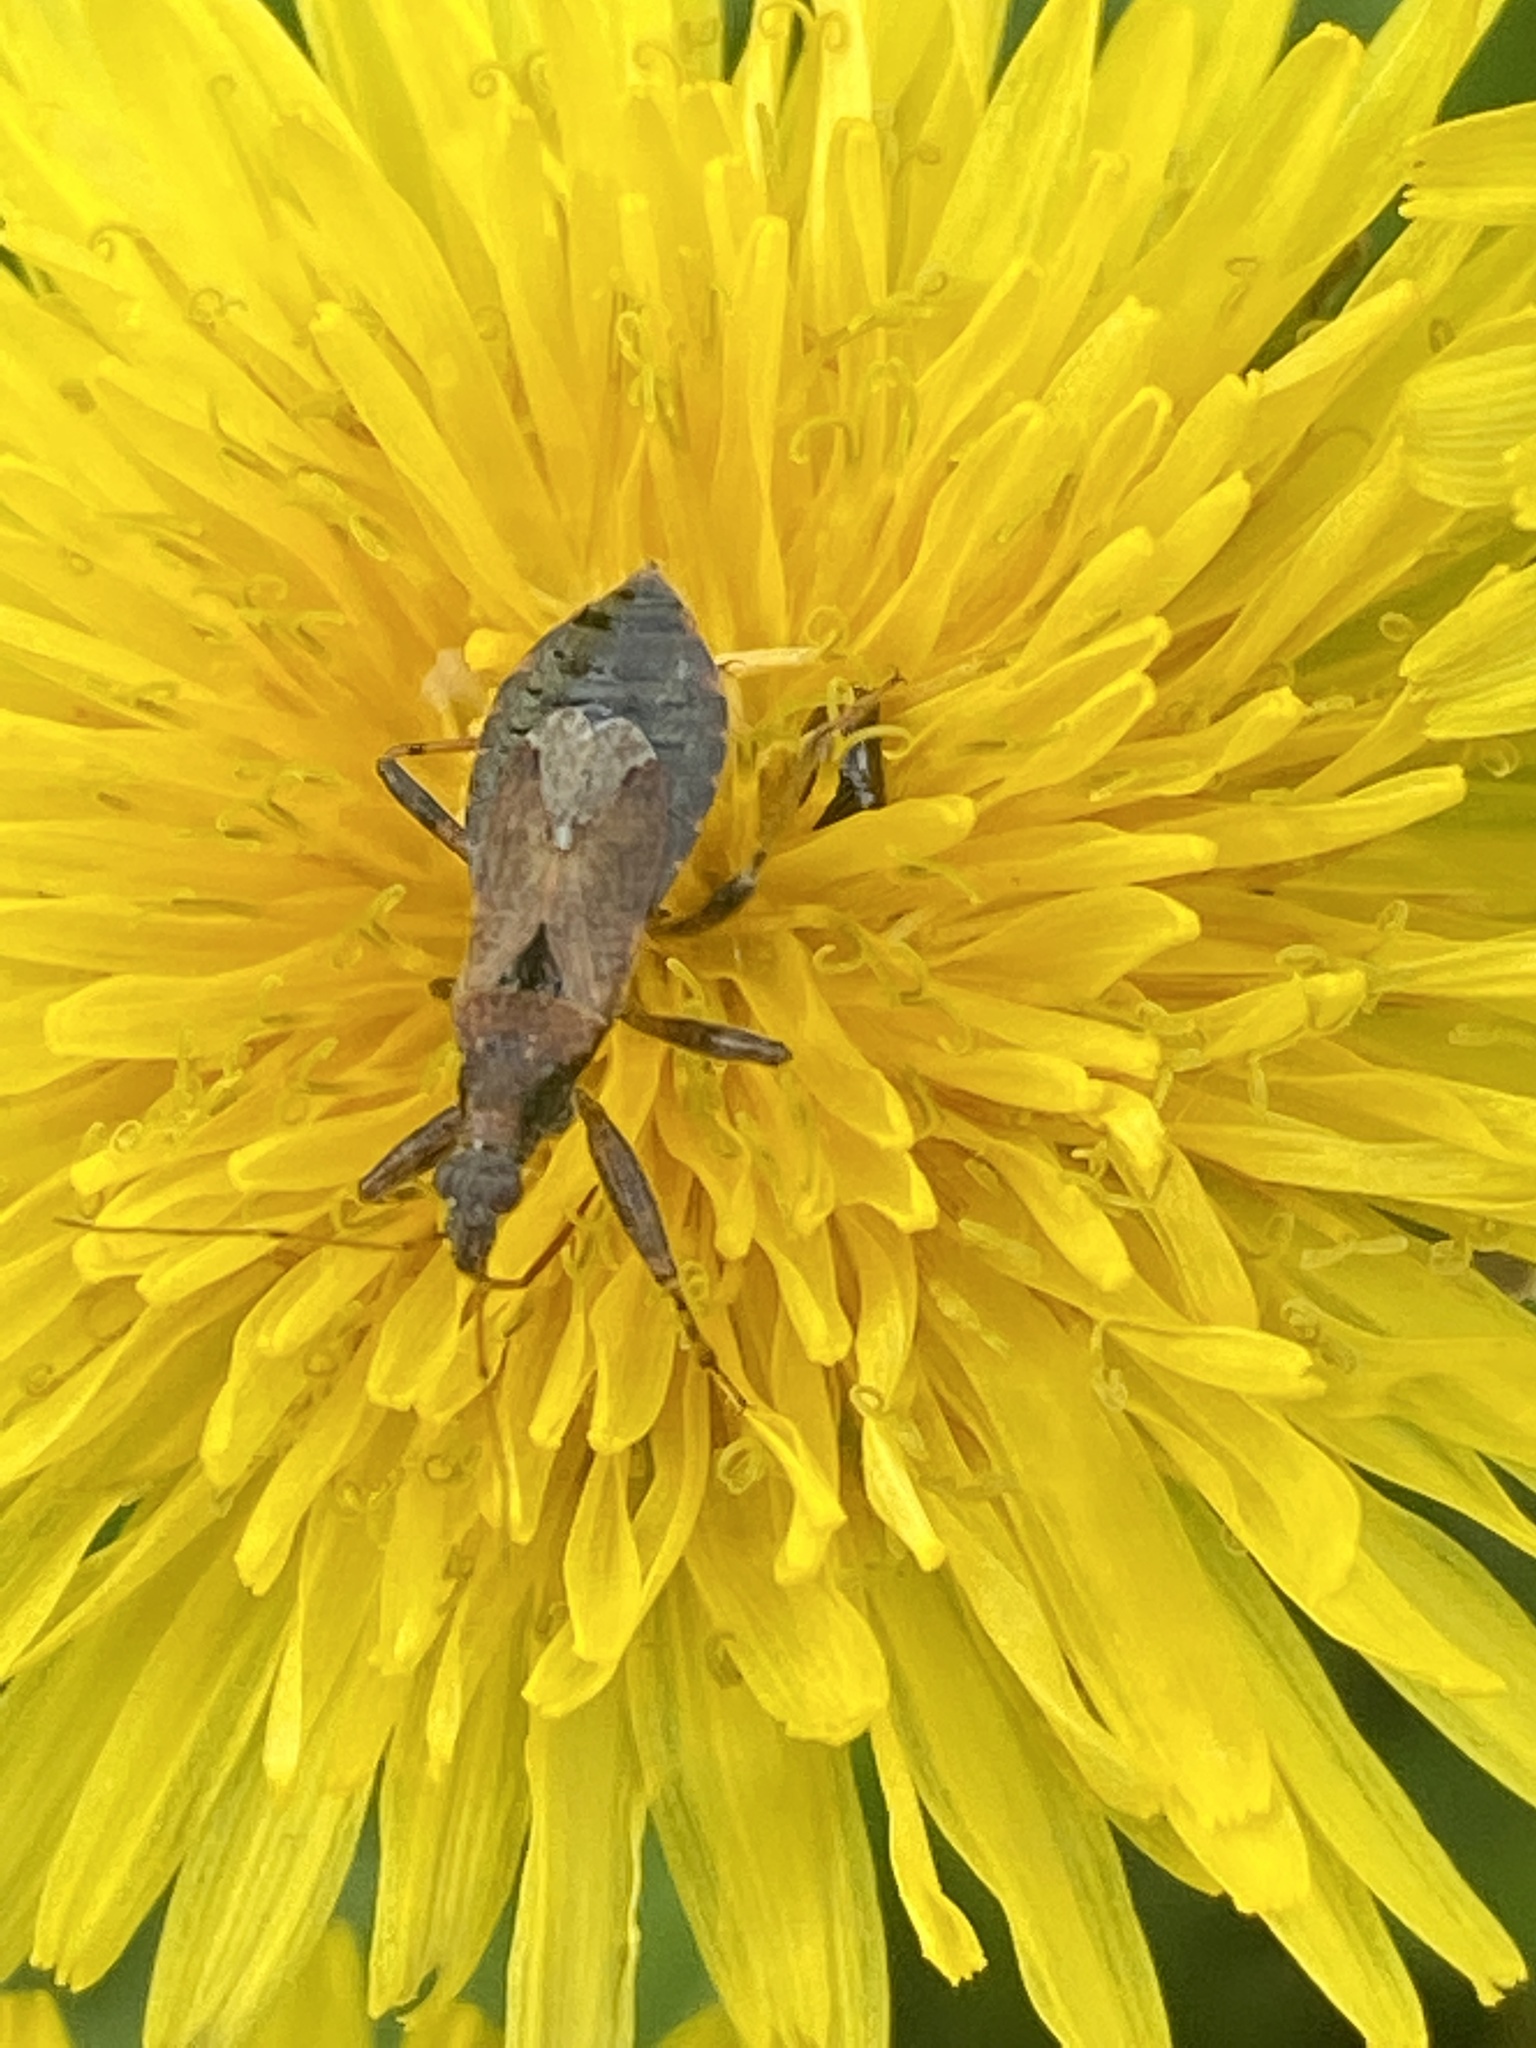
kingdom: Animalia
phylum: Arthropoda
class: Insecta
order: Hemiptera
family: Nabidae
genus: Himacerus
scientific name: Himacerus mirmicoides
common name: Ant damsel bug
